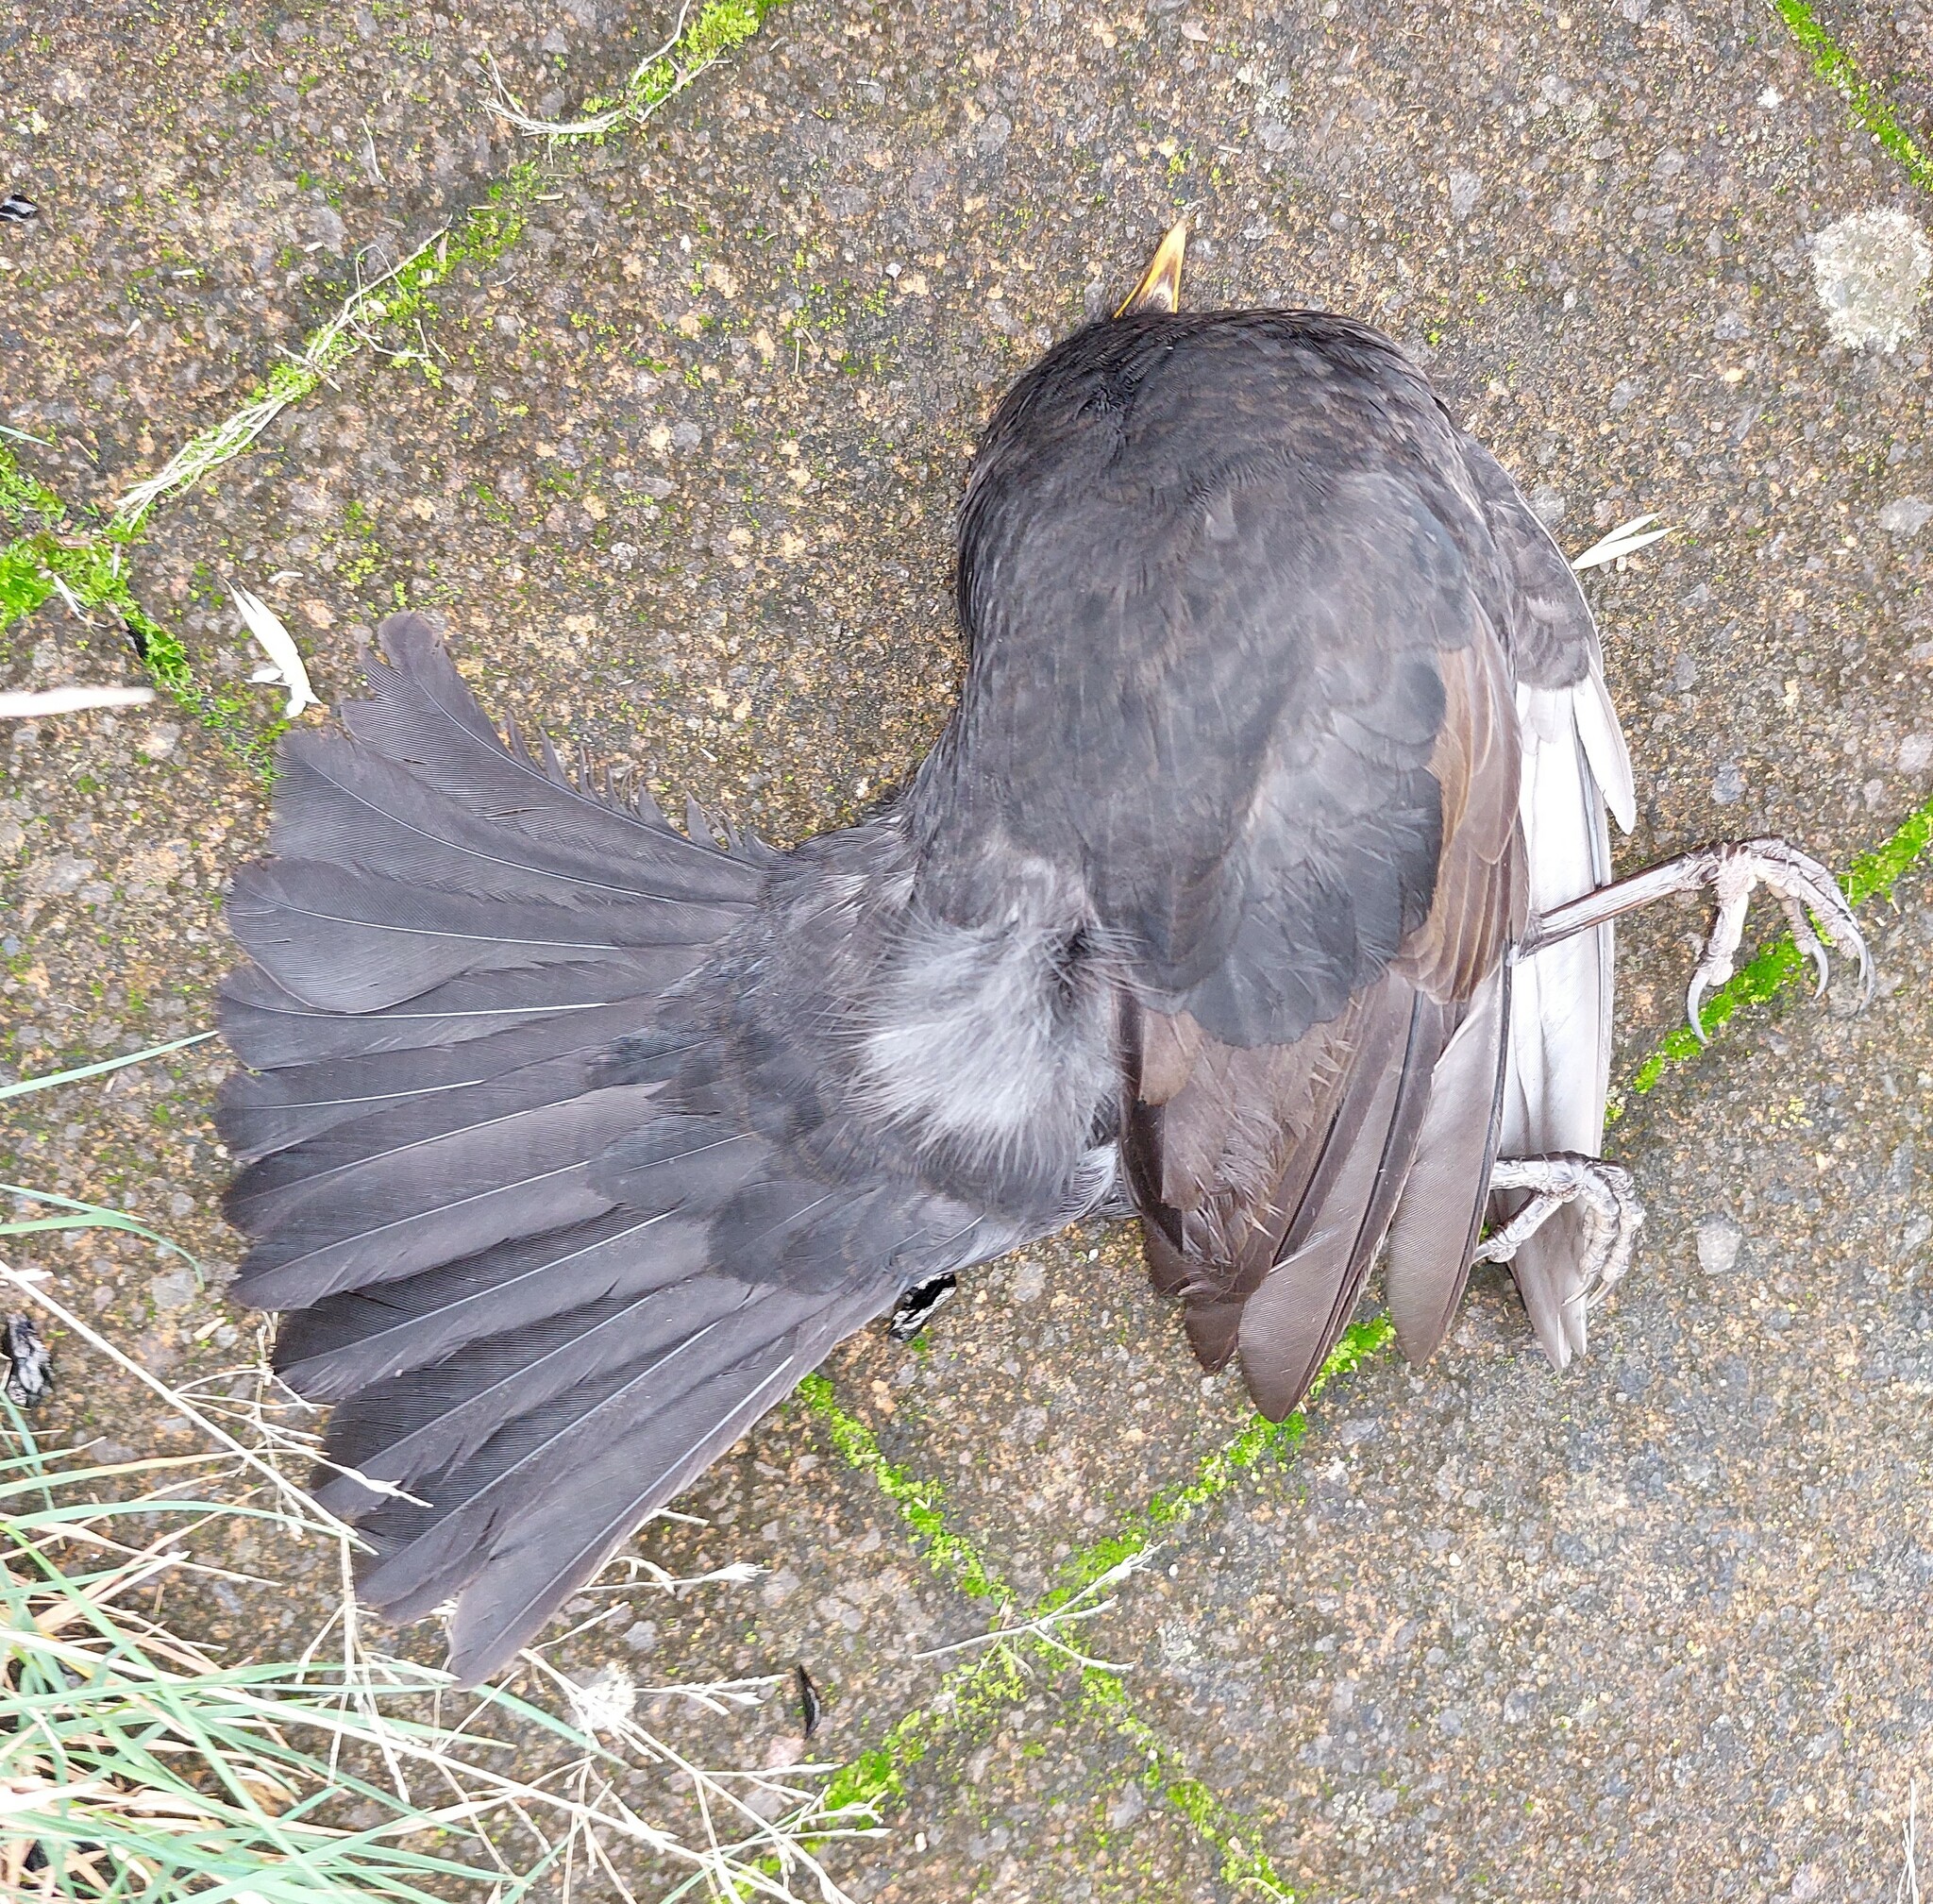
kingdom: Animalia
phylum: Chordata
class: Aves
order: Passeriformes
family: Turdidae
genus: Turdus
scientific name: Turdus merula
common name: Common blackbird
